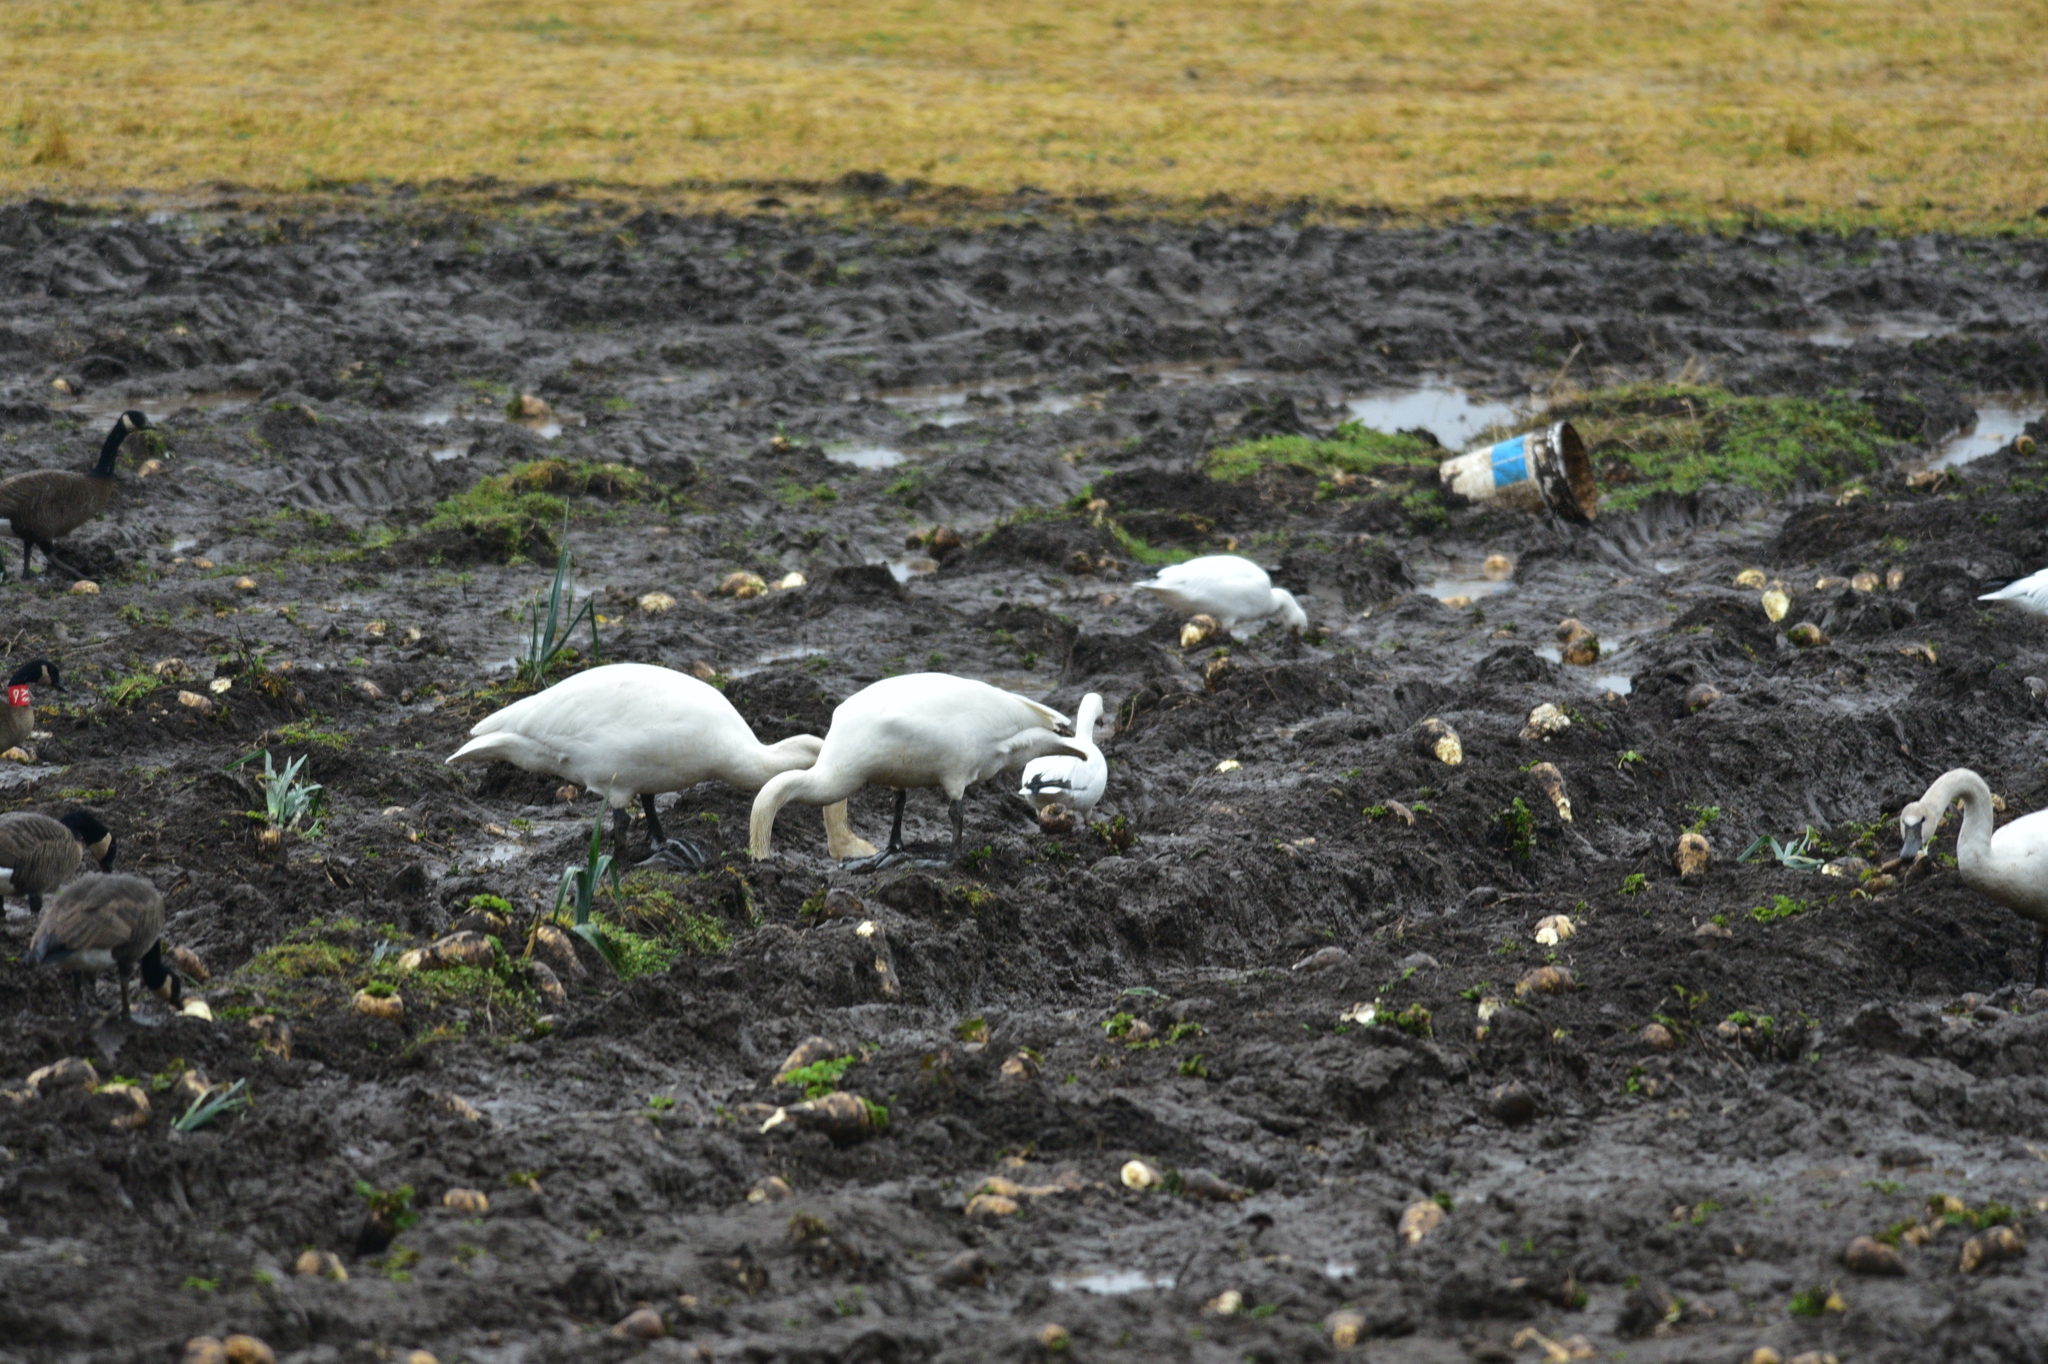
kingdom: Animalia
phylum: Chordata
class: Aves
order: Anseriformes
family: Anatidae
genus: Cygnus
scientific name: Cygnus buccinator
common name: Trumpeter swan
